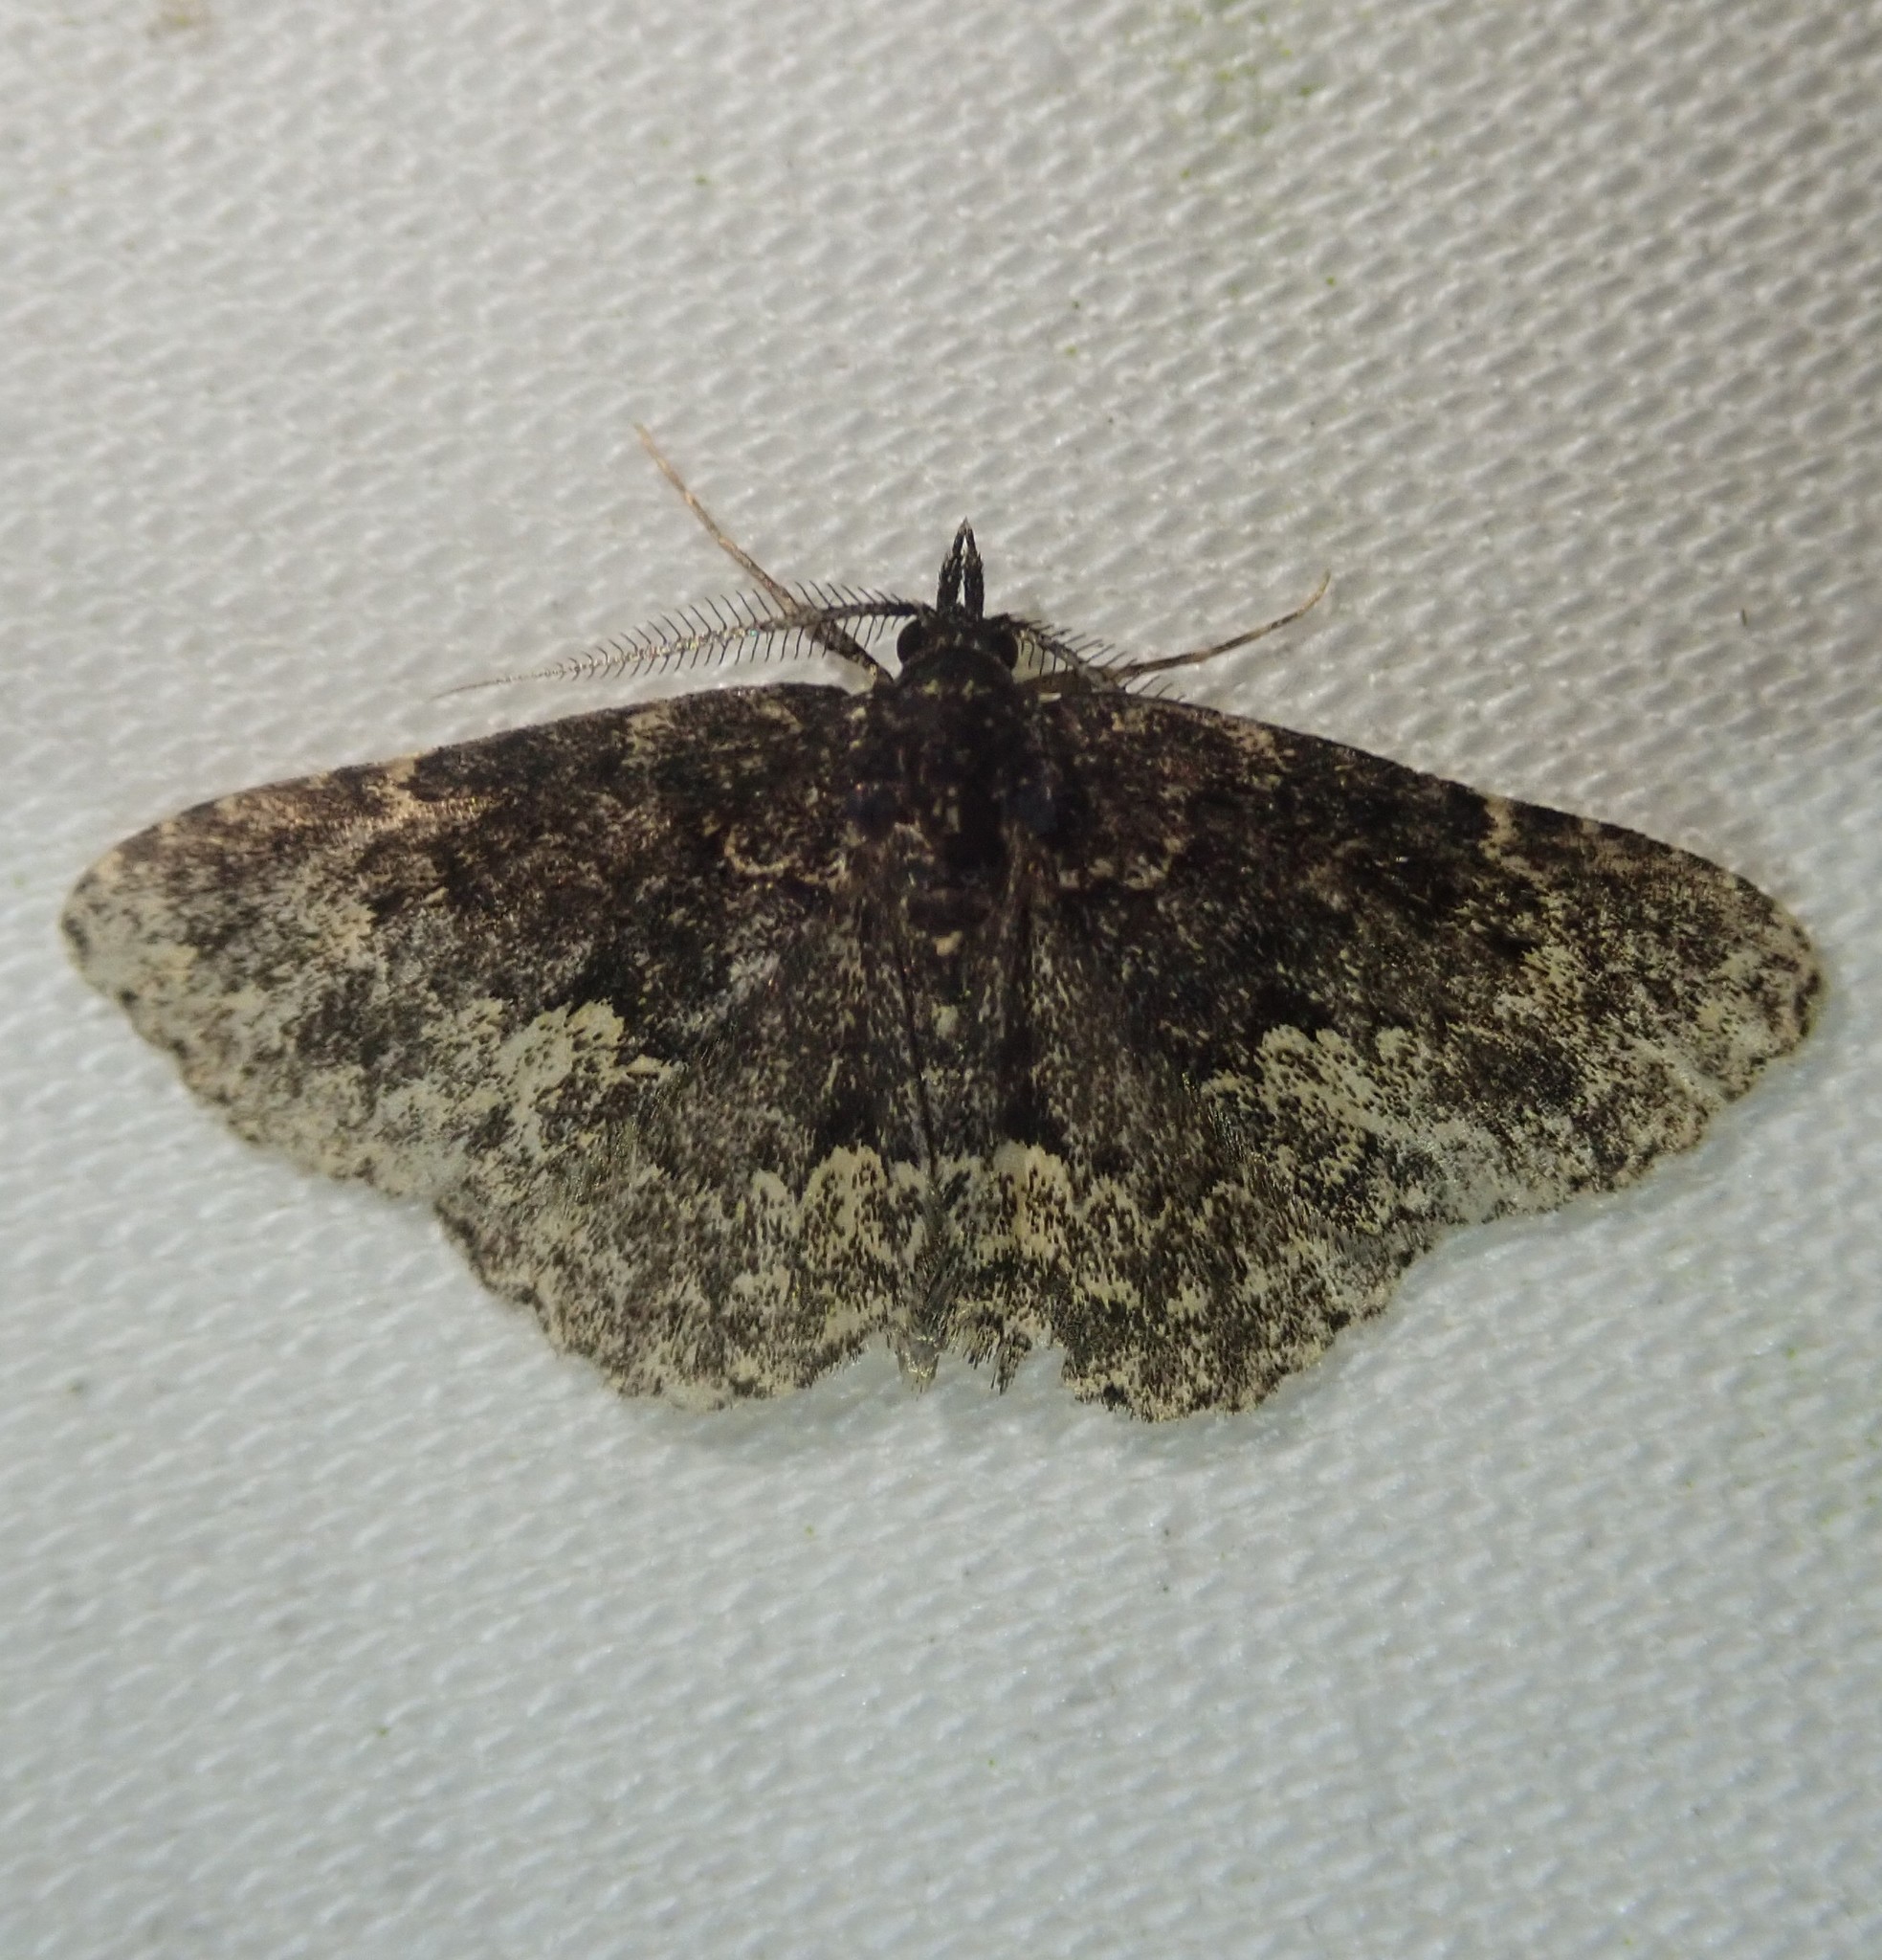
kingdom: Animalia
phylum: Arthropoda
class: Insecta
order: Lepidoptera
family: Erebidae
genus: Parascotia
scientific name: Parascotia fuliginaria
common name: Waved black
